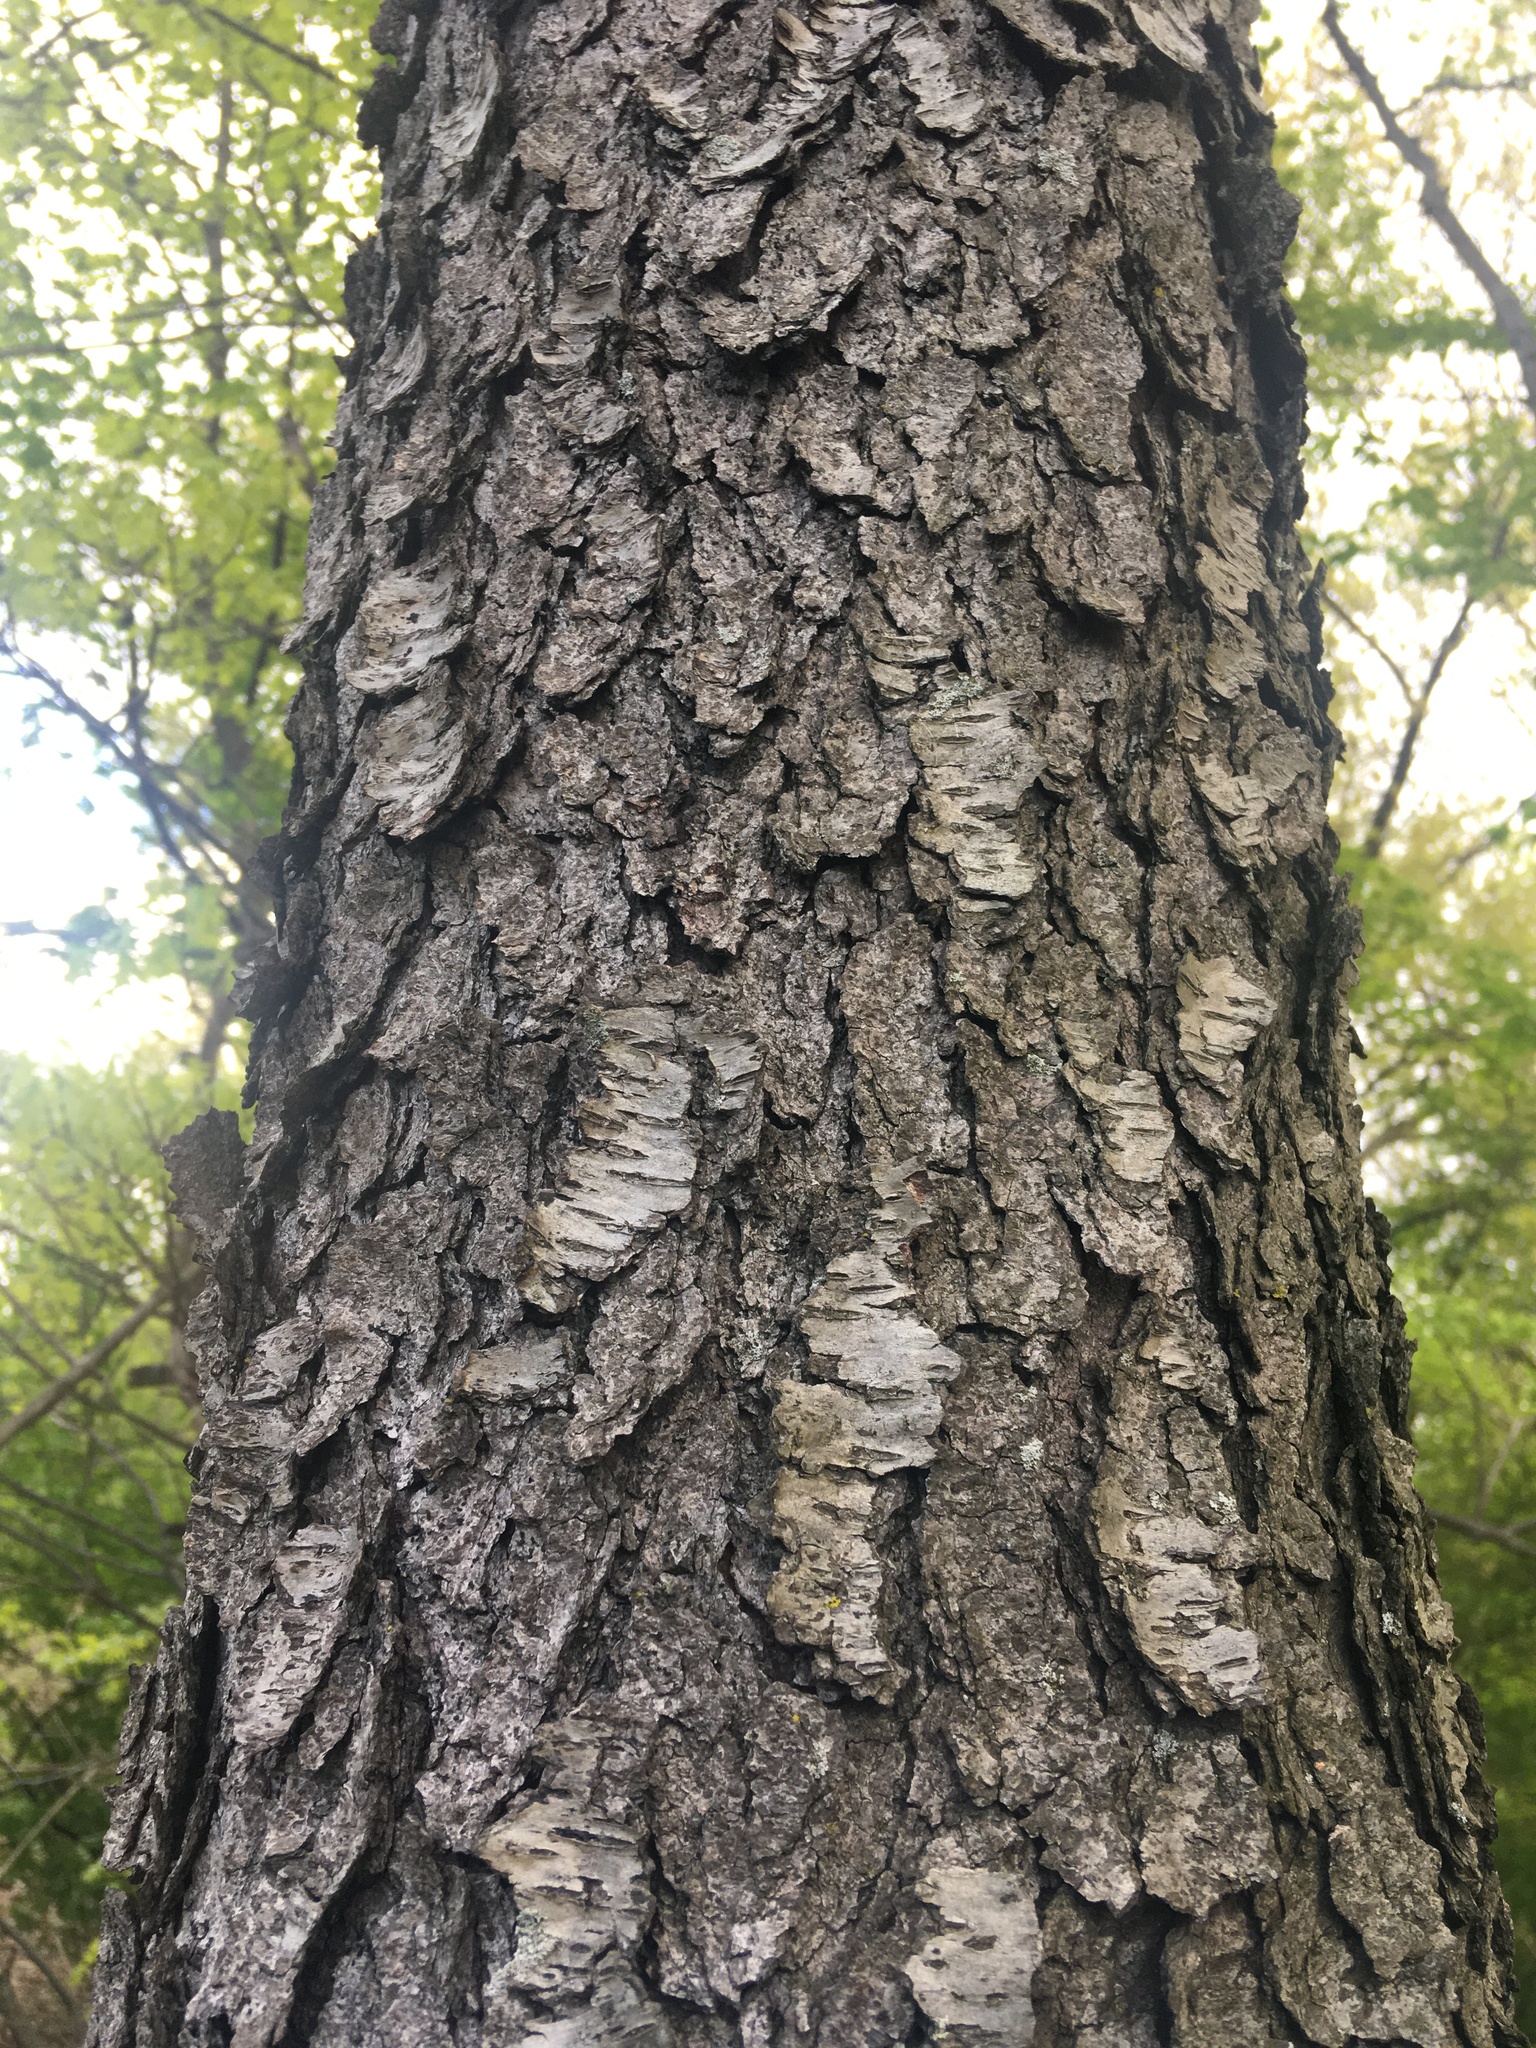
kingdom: Plantae
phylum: Tracheophyta
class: Magnoliopsida
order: Rosales
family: Rosaceae
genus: Prunus
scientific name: Prunus serotina
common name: Black cherry
